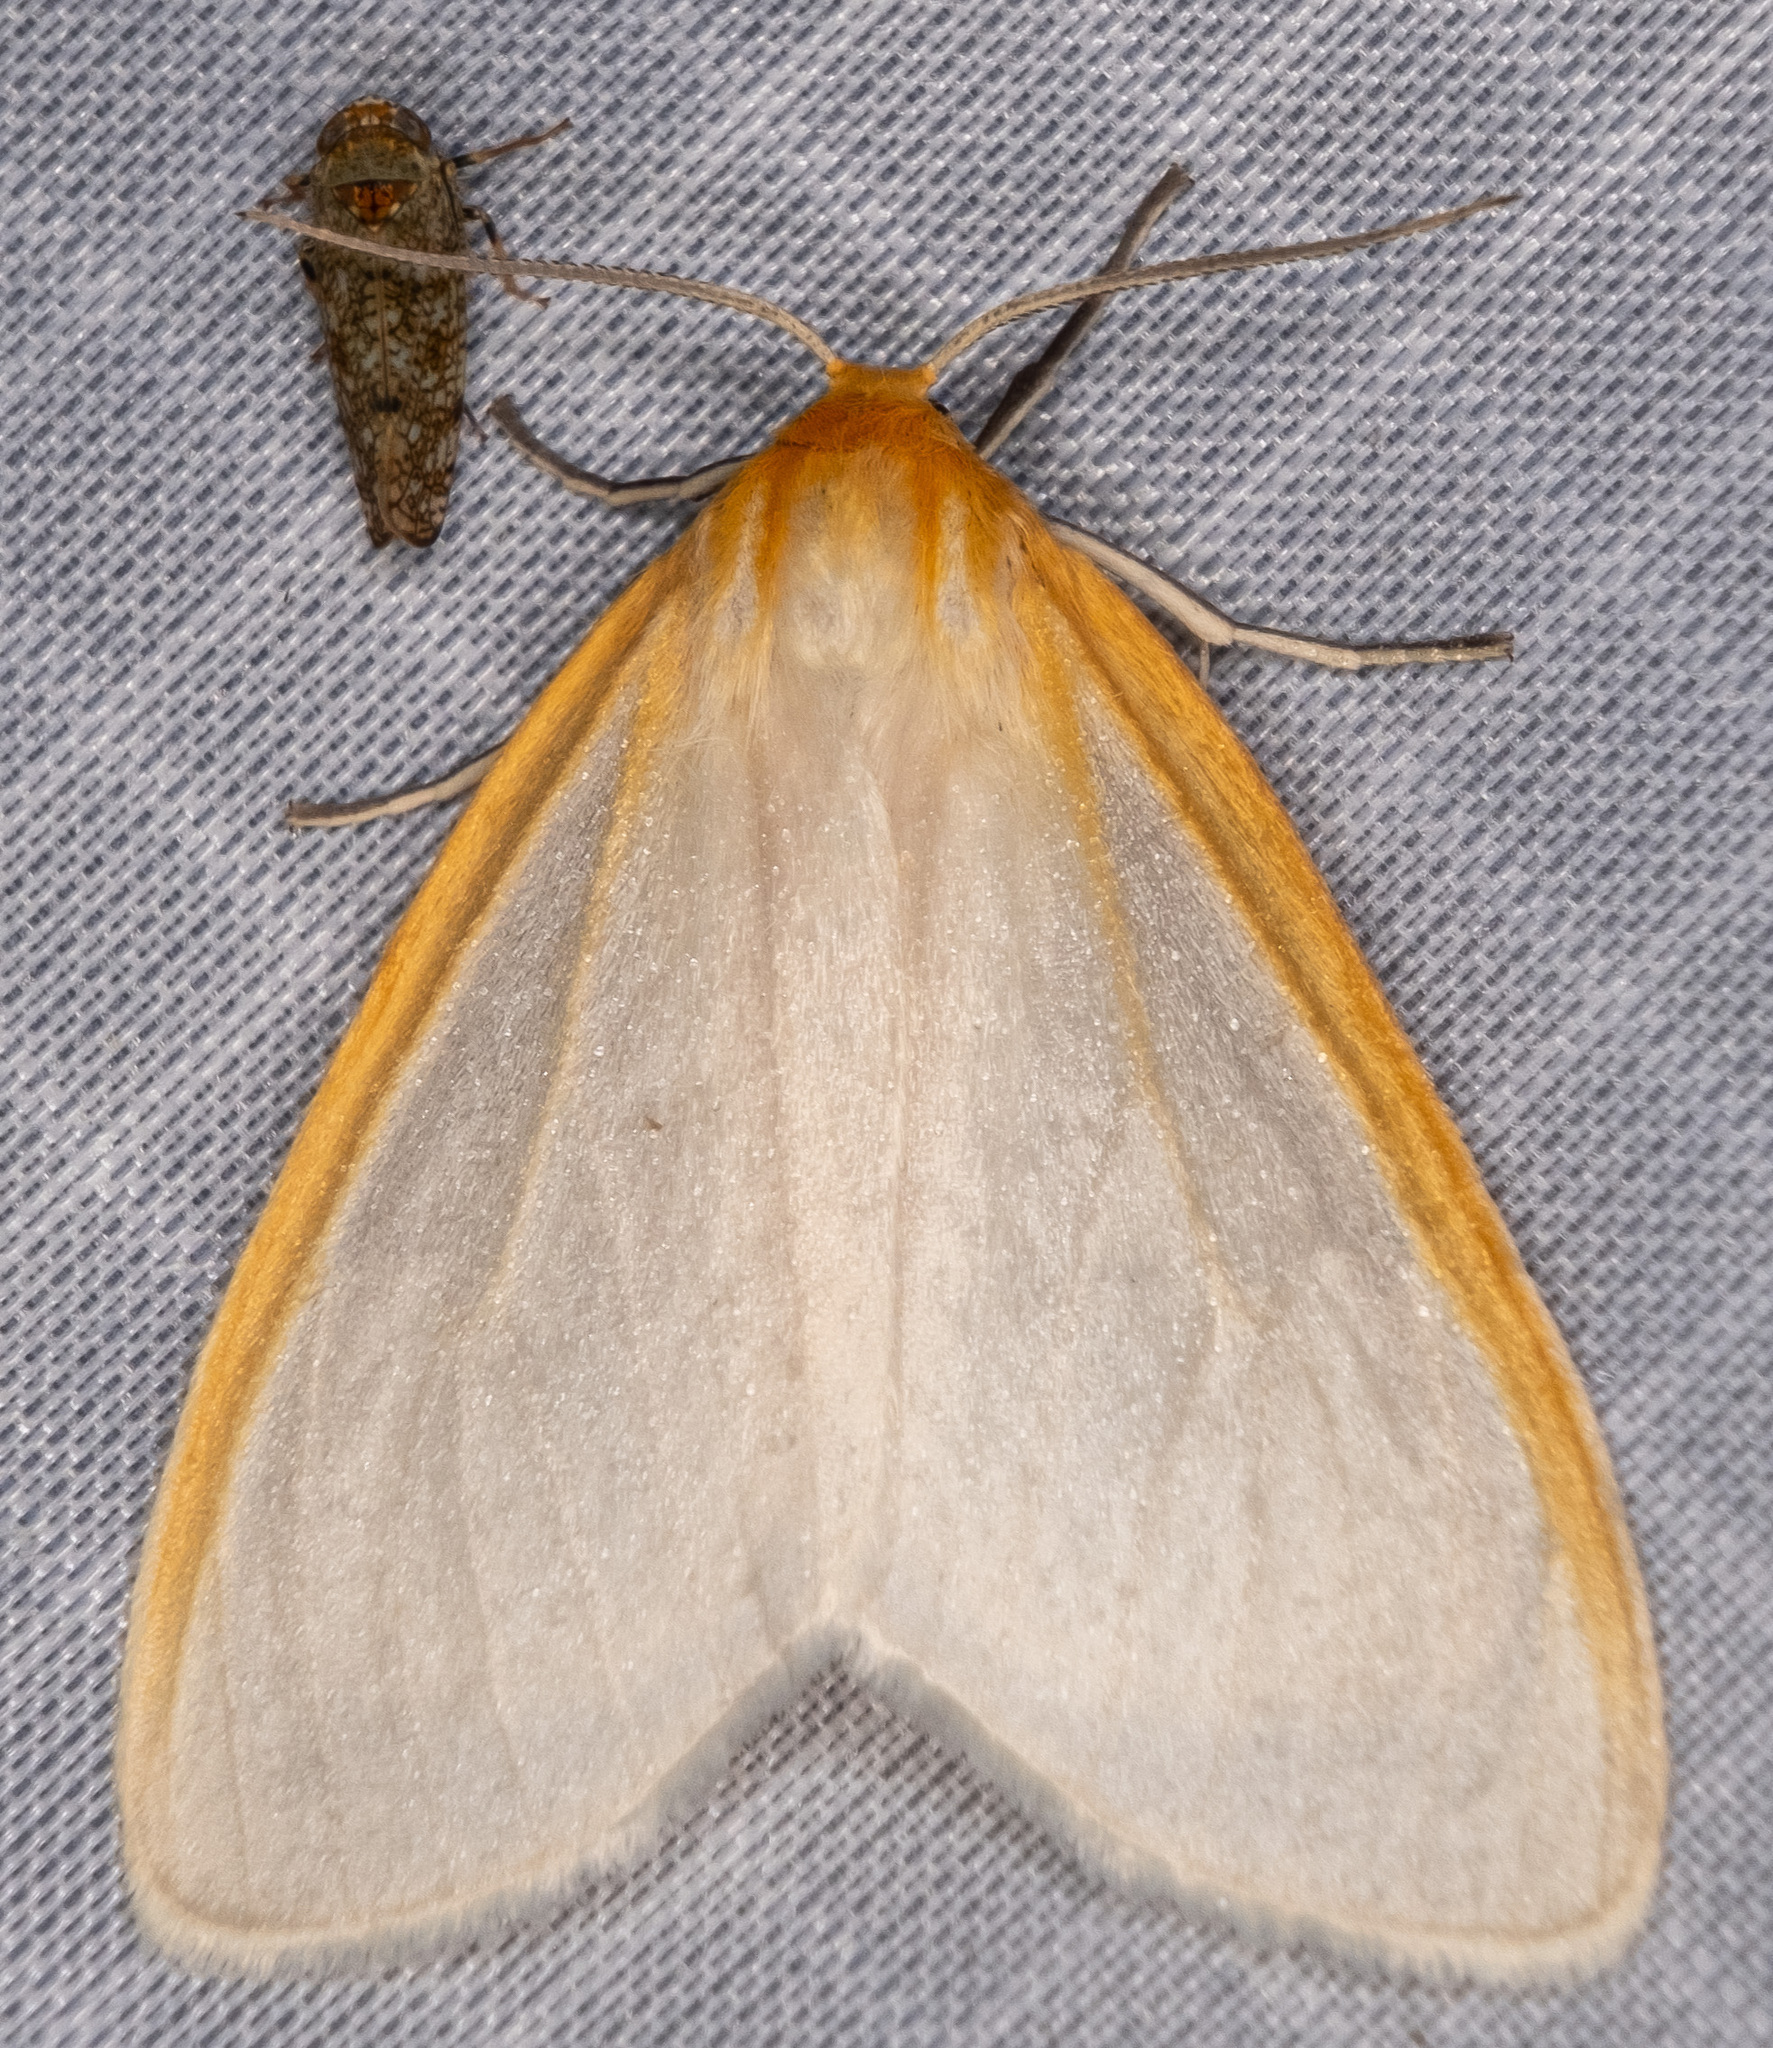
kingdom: Animalia
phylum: Arthropoda
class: Insecta
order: Lepidoptera
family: Erebidae
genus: Cycnia
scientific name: Cycnia tenera
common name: Delicate cycnia moth
